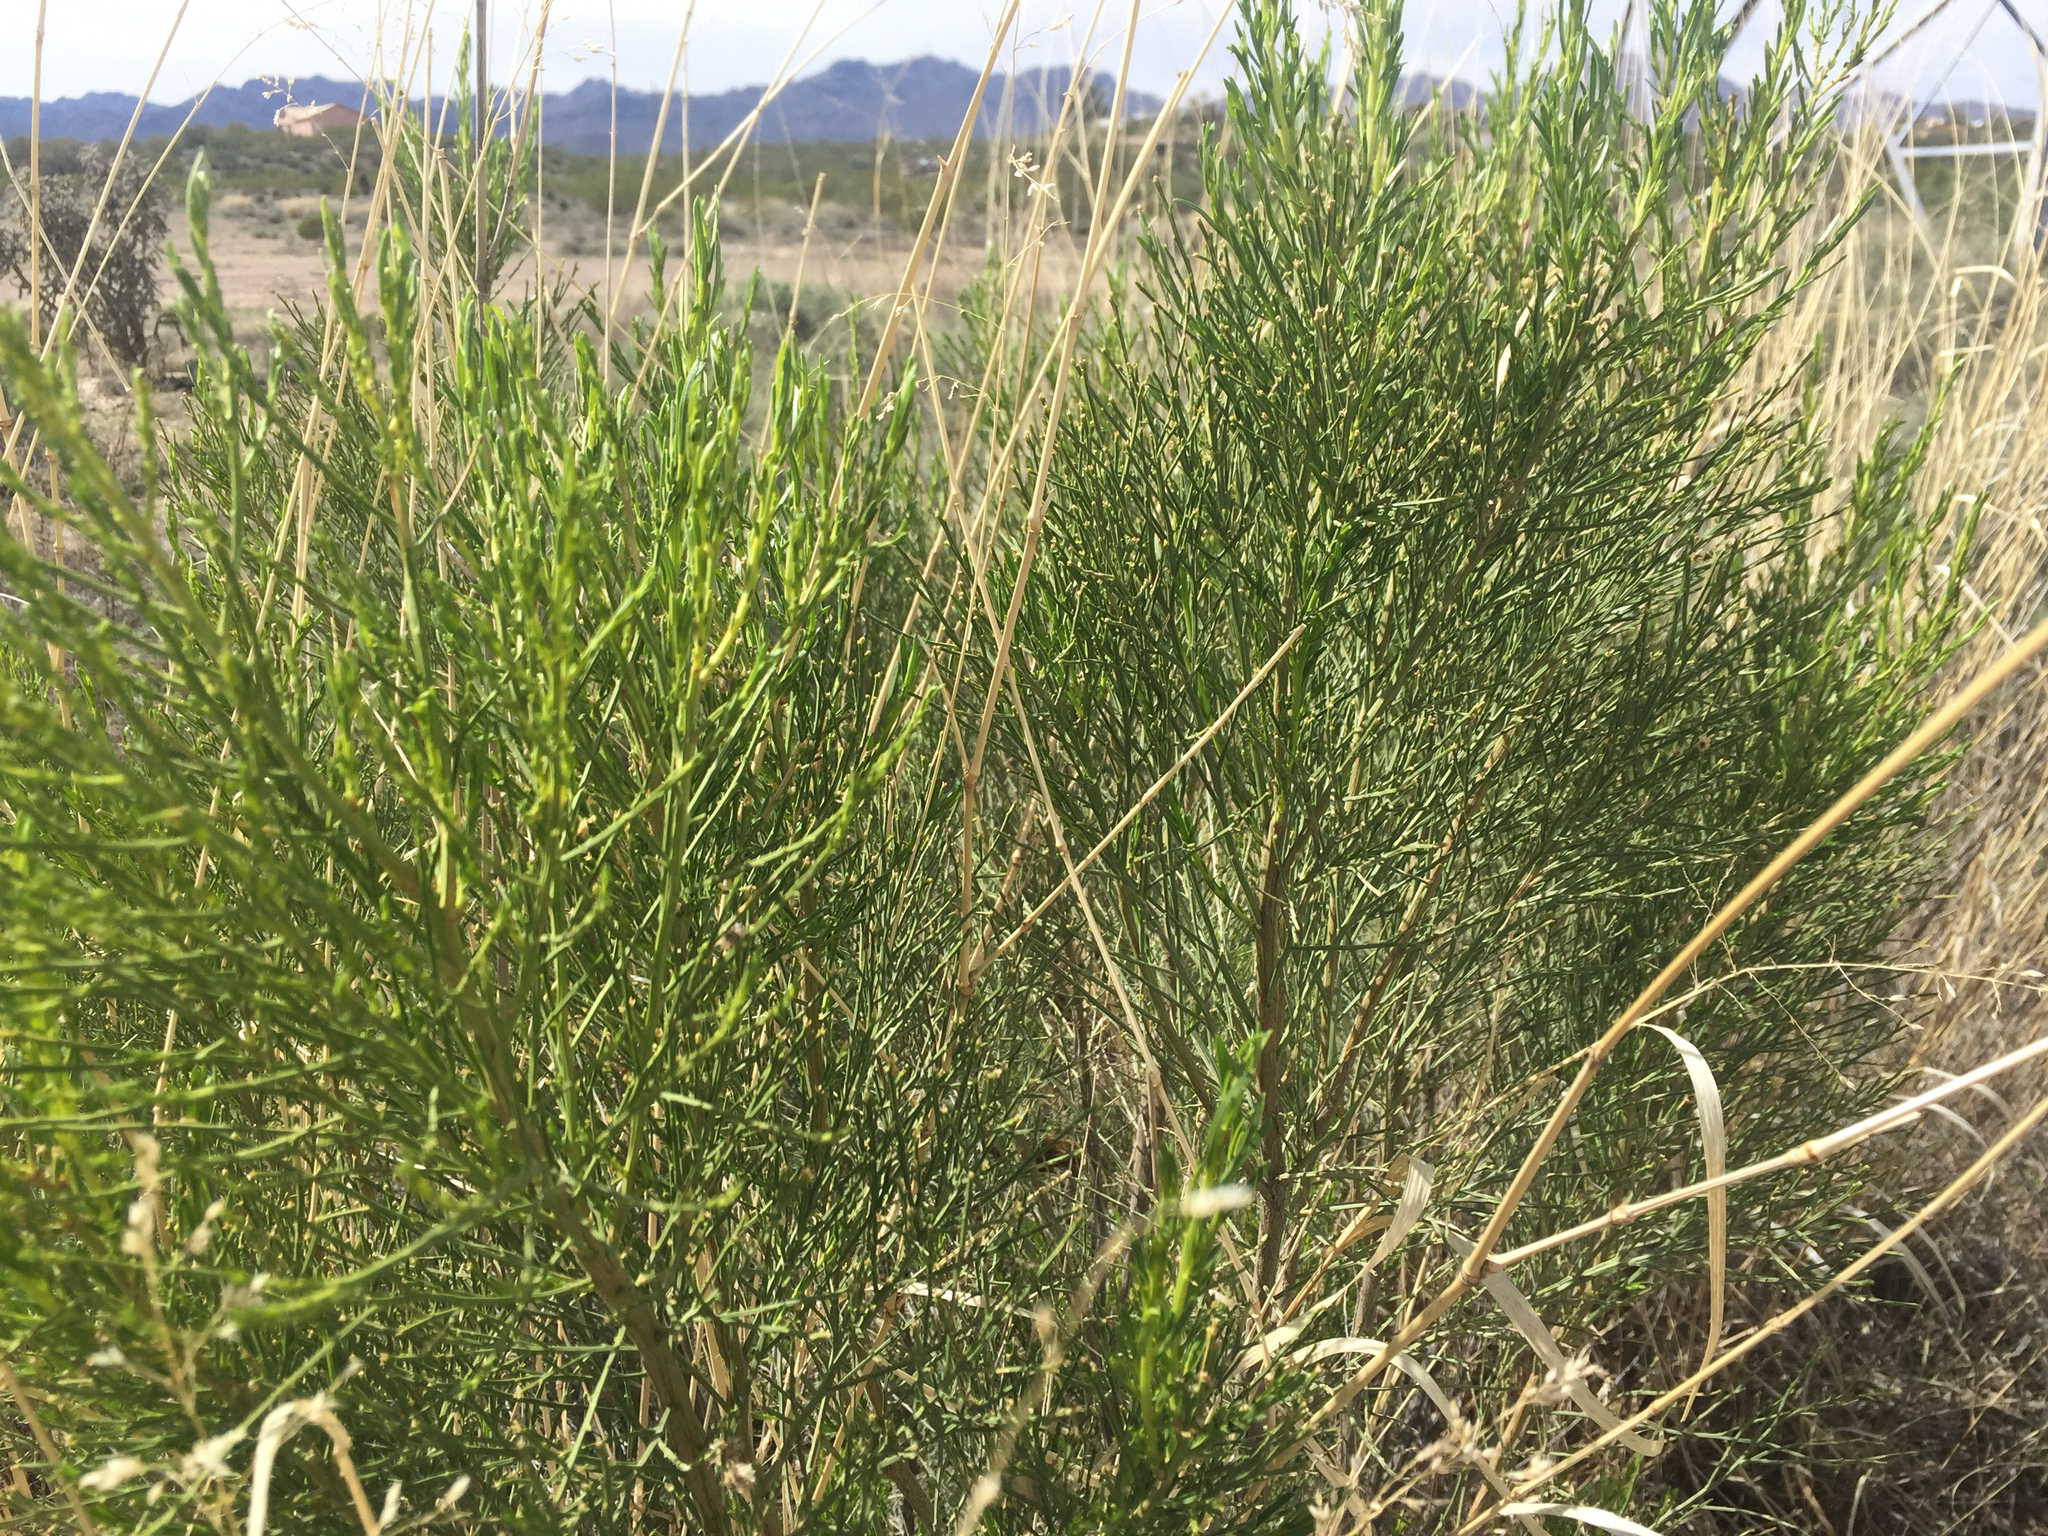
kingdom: Plantae
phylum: Tracheophyta
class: Magnoliopsida
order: Asterales
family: Asteraceae
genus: Baccharis
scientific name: Baccharis sarothroides
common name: Desert-broom
